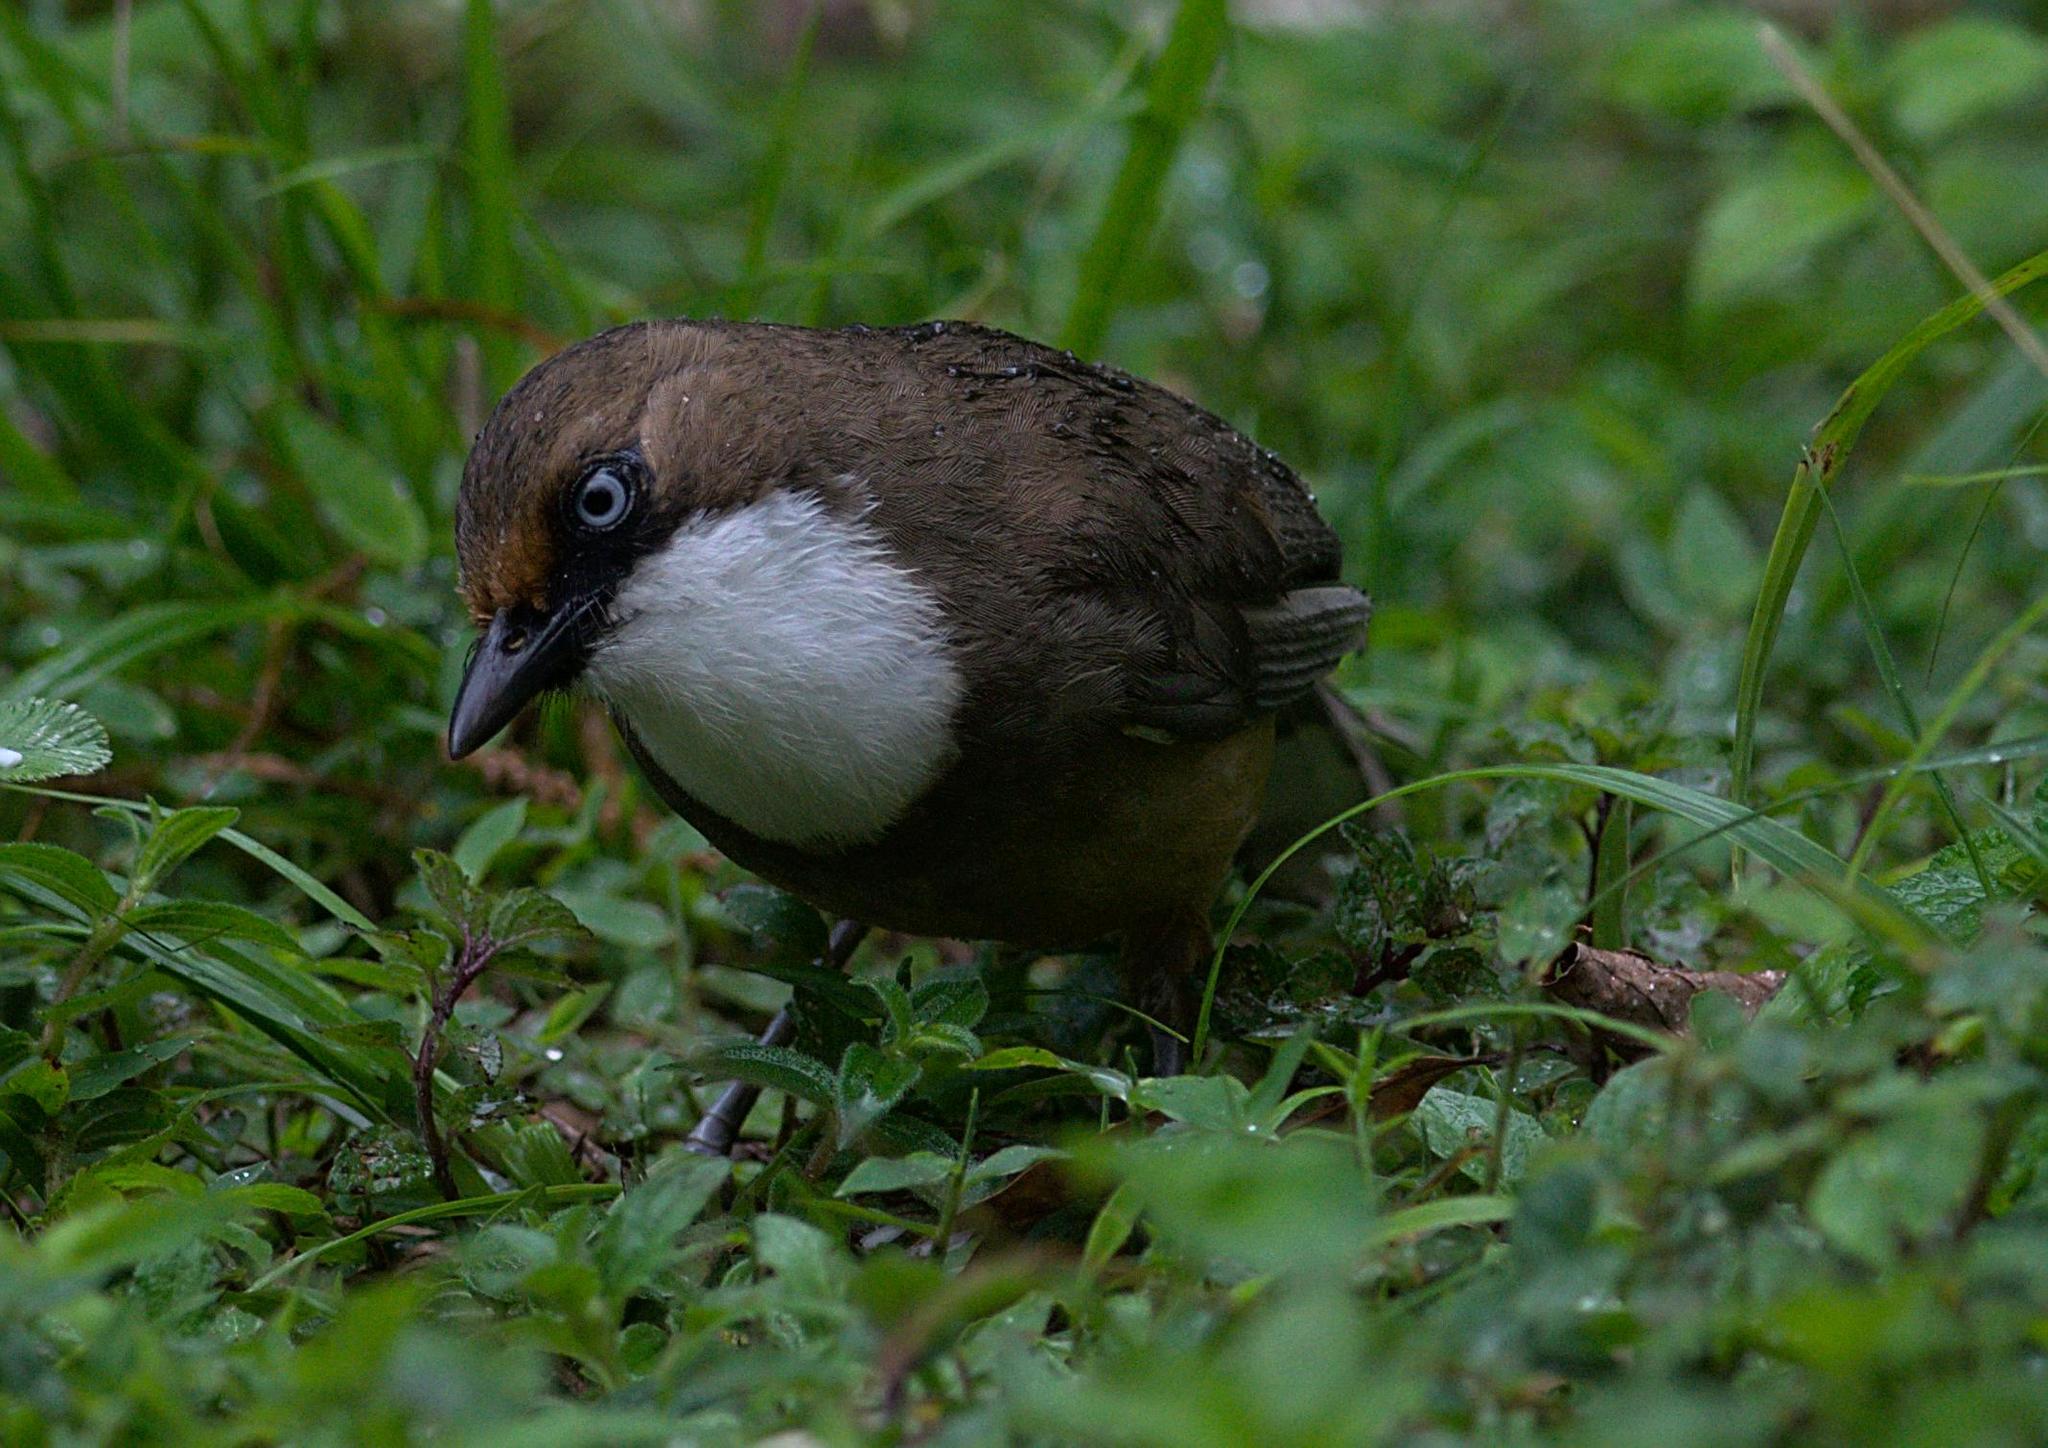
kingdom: Animalia
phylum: Chordata
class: Aves
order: Passeriformes
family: Leiothrichidae
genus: Garrulax
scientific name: Garrulax albogularis
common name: White-throated laughingthrush
